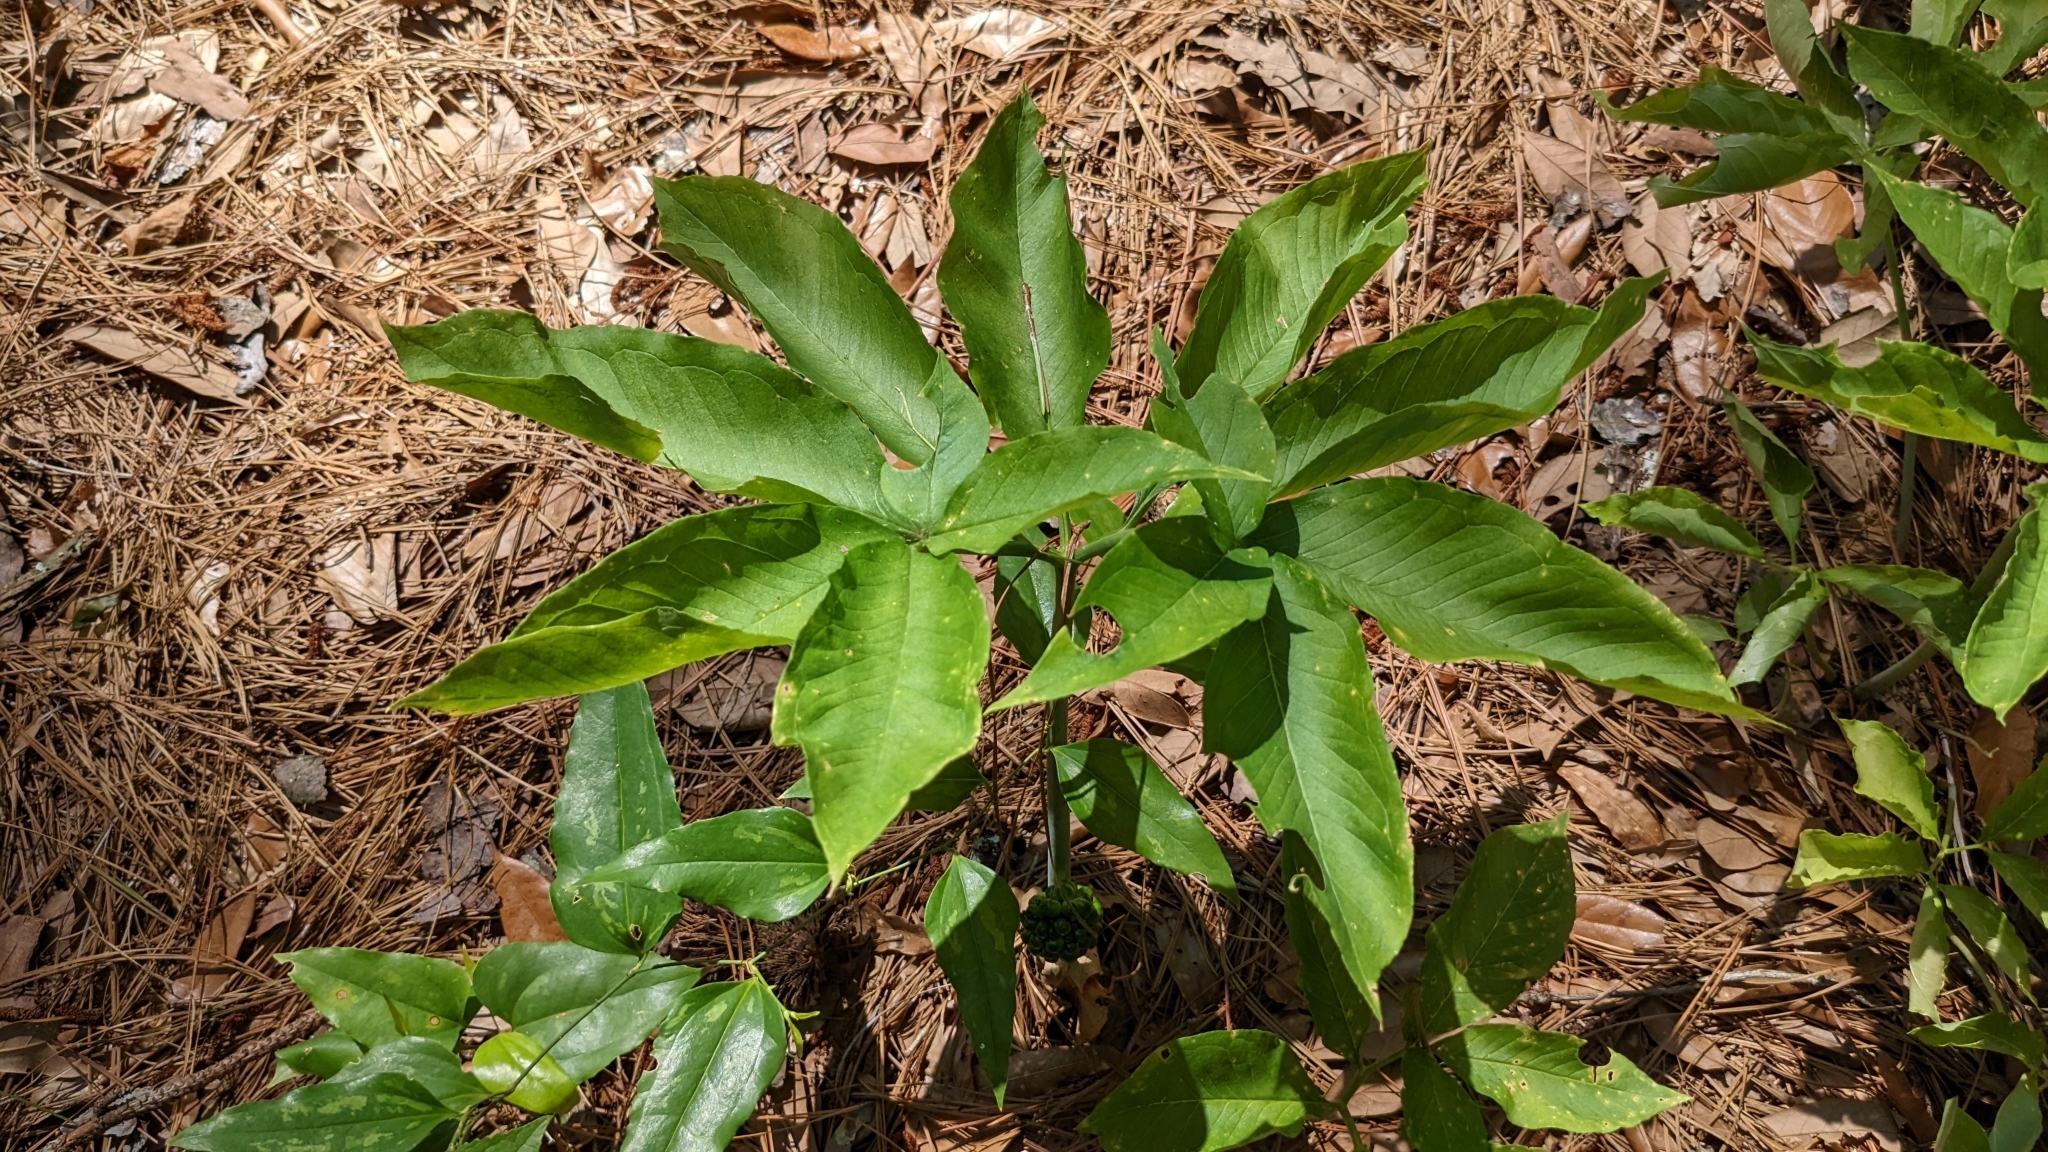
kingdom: Plantae
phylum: Tracheophyta
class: Liliopsida
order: Alismatales
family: Araceae
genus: Arisaema
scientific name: Arisaema dracontium
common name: Dragon-arum
